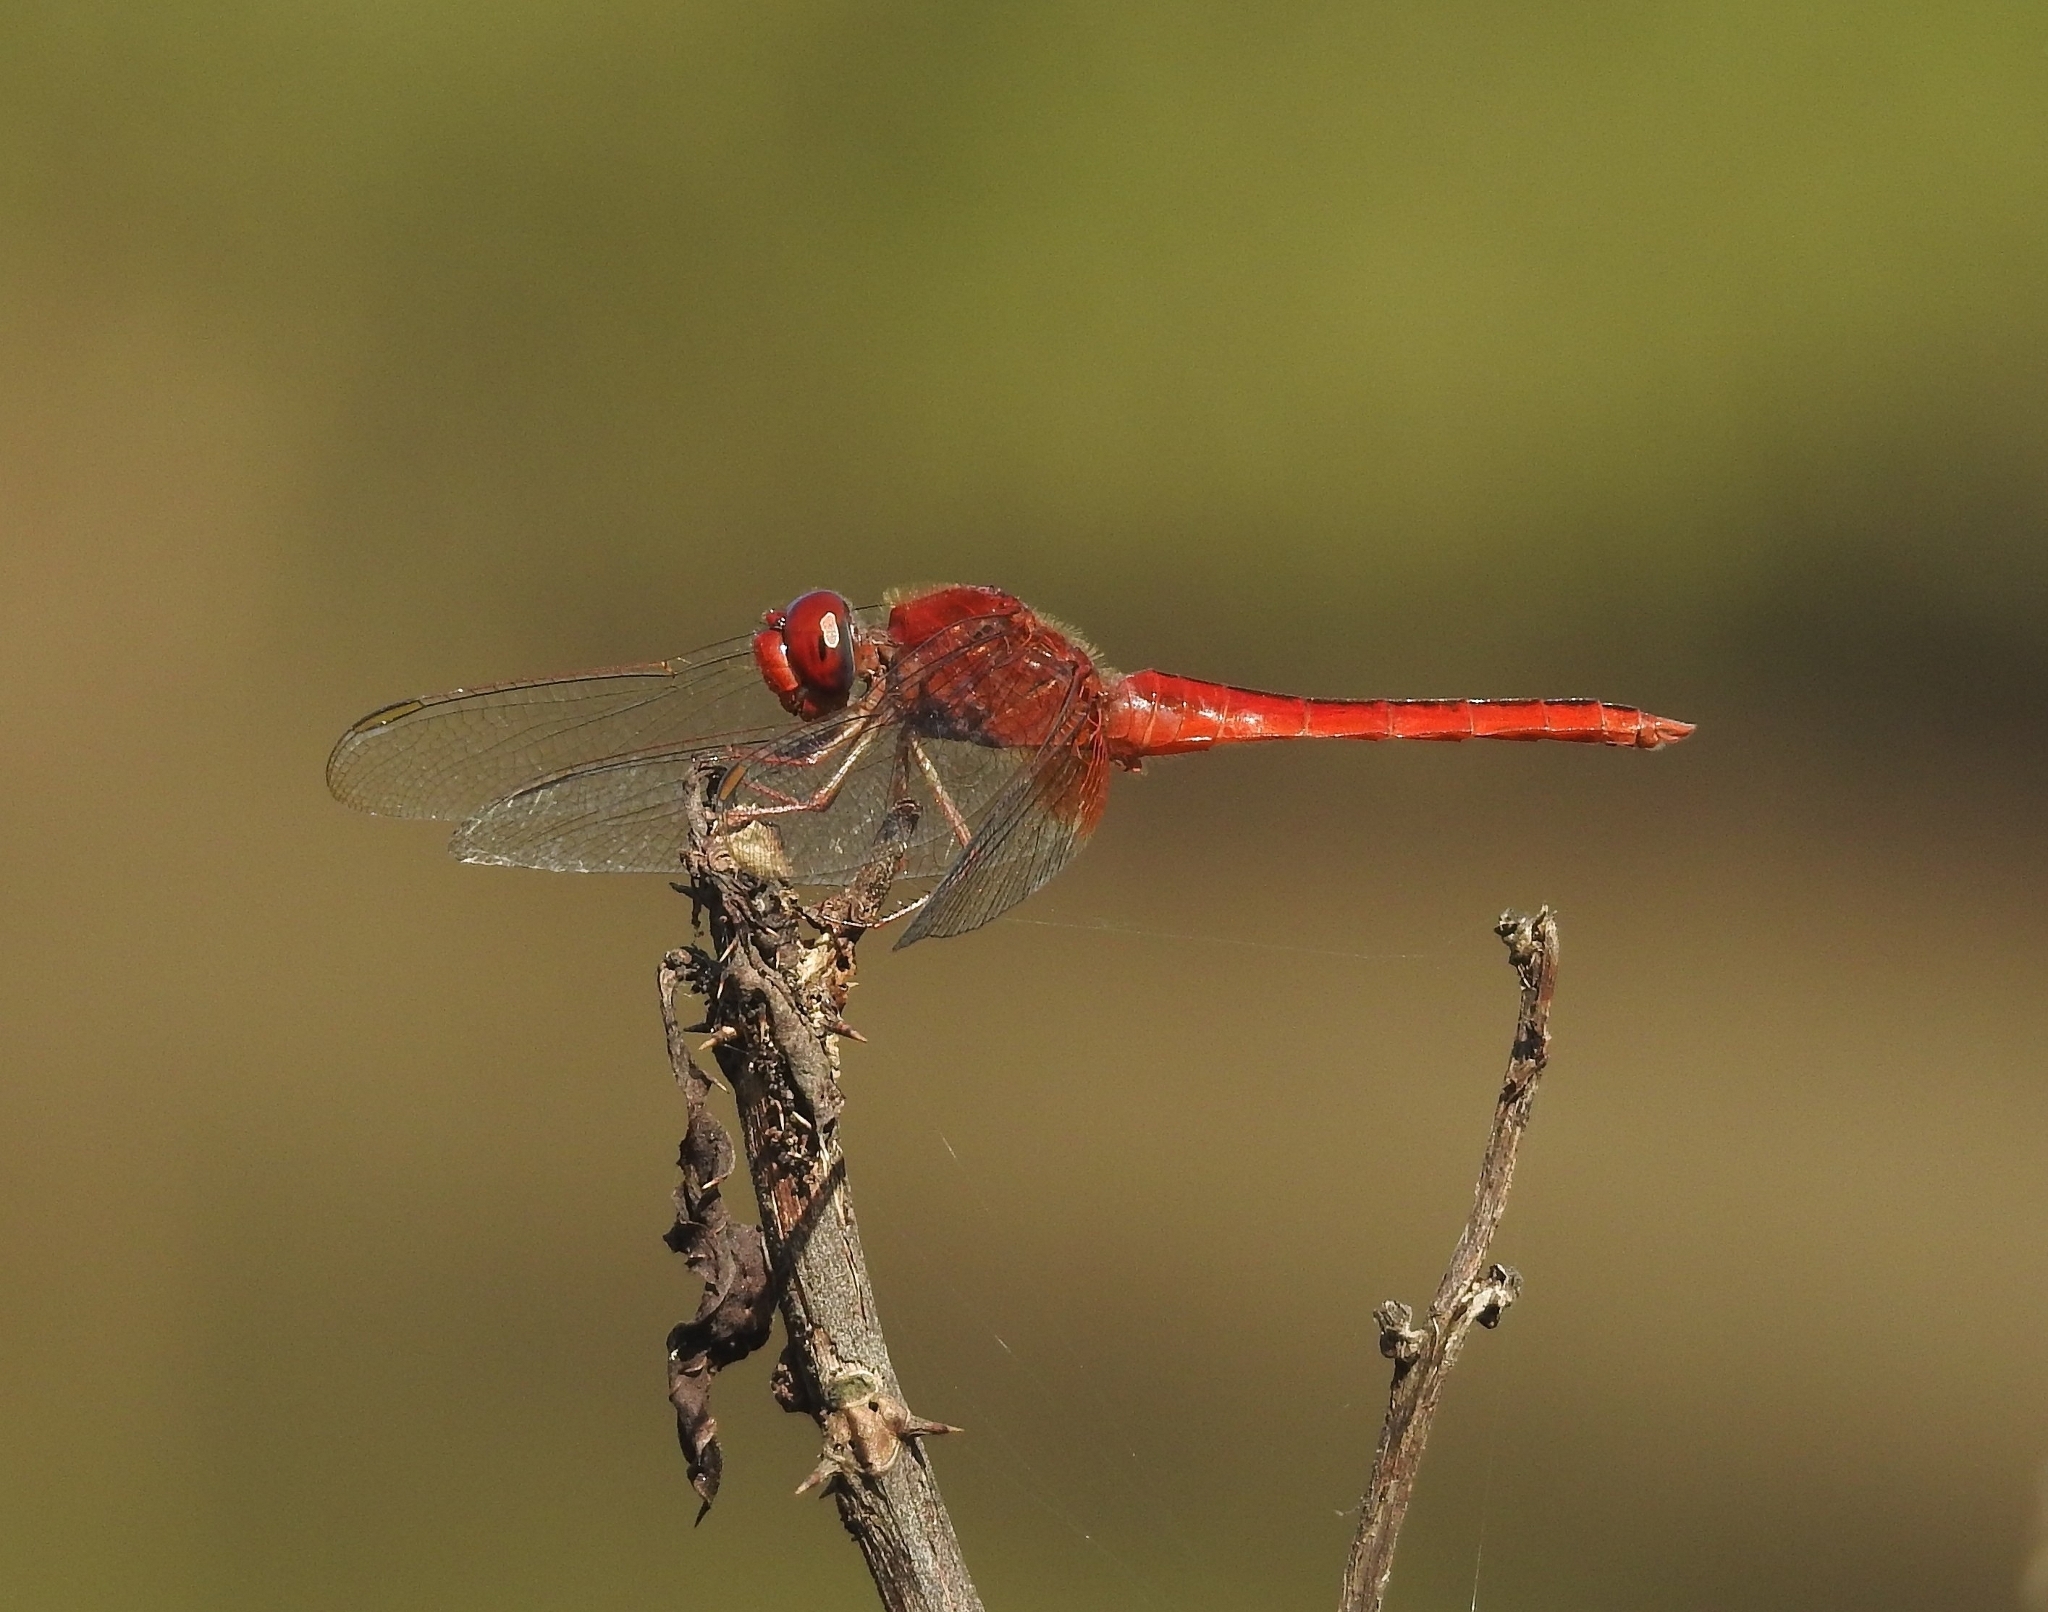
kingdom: Animalia
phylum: Arthropoda
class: Insecta
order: Odonata
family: Libellulidae
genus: Crocothemis
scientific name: Crocothemis servilia
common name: Scarlet skimmer
